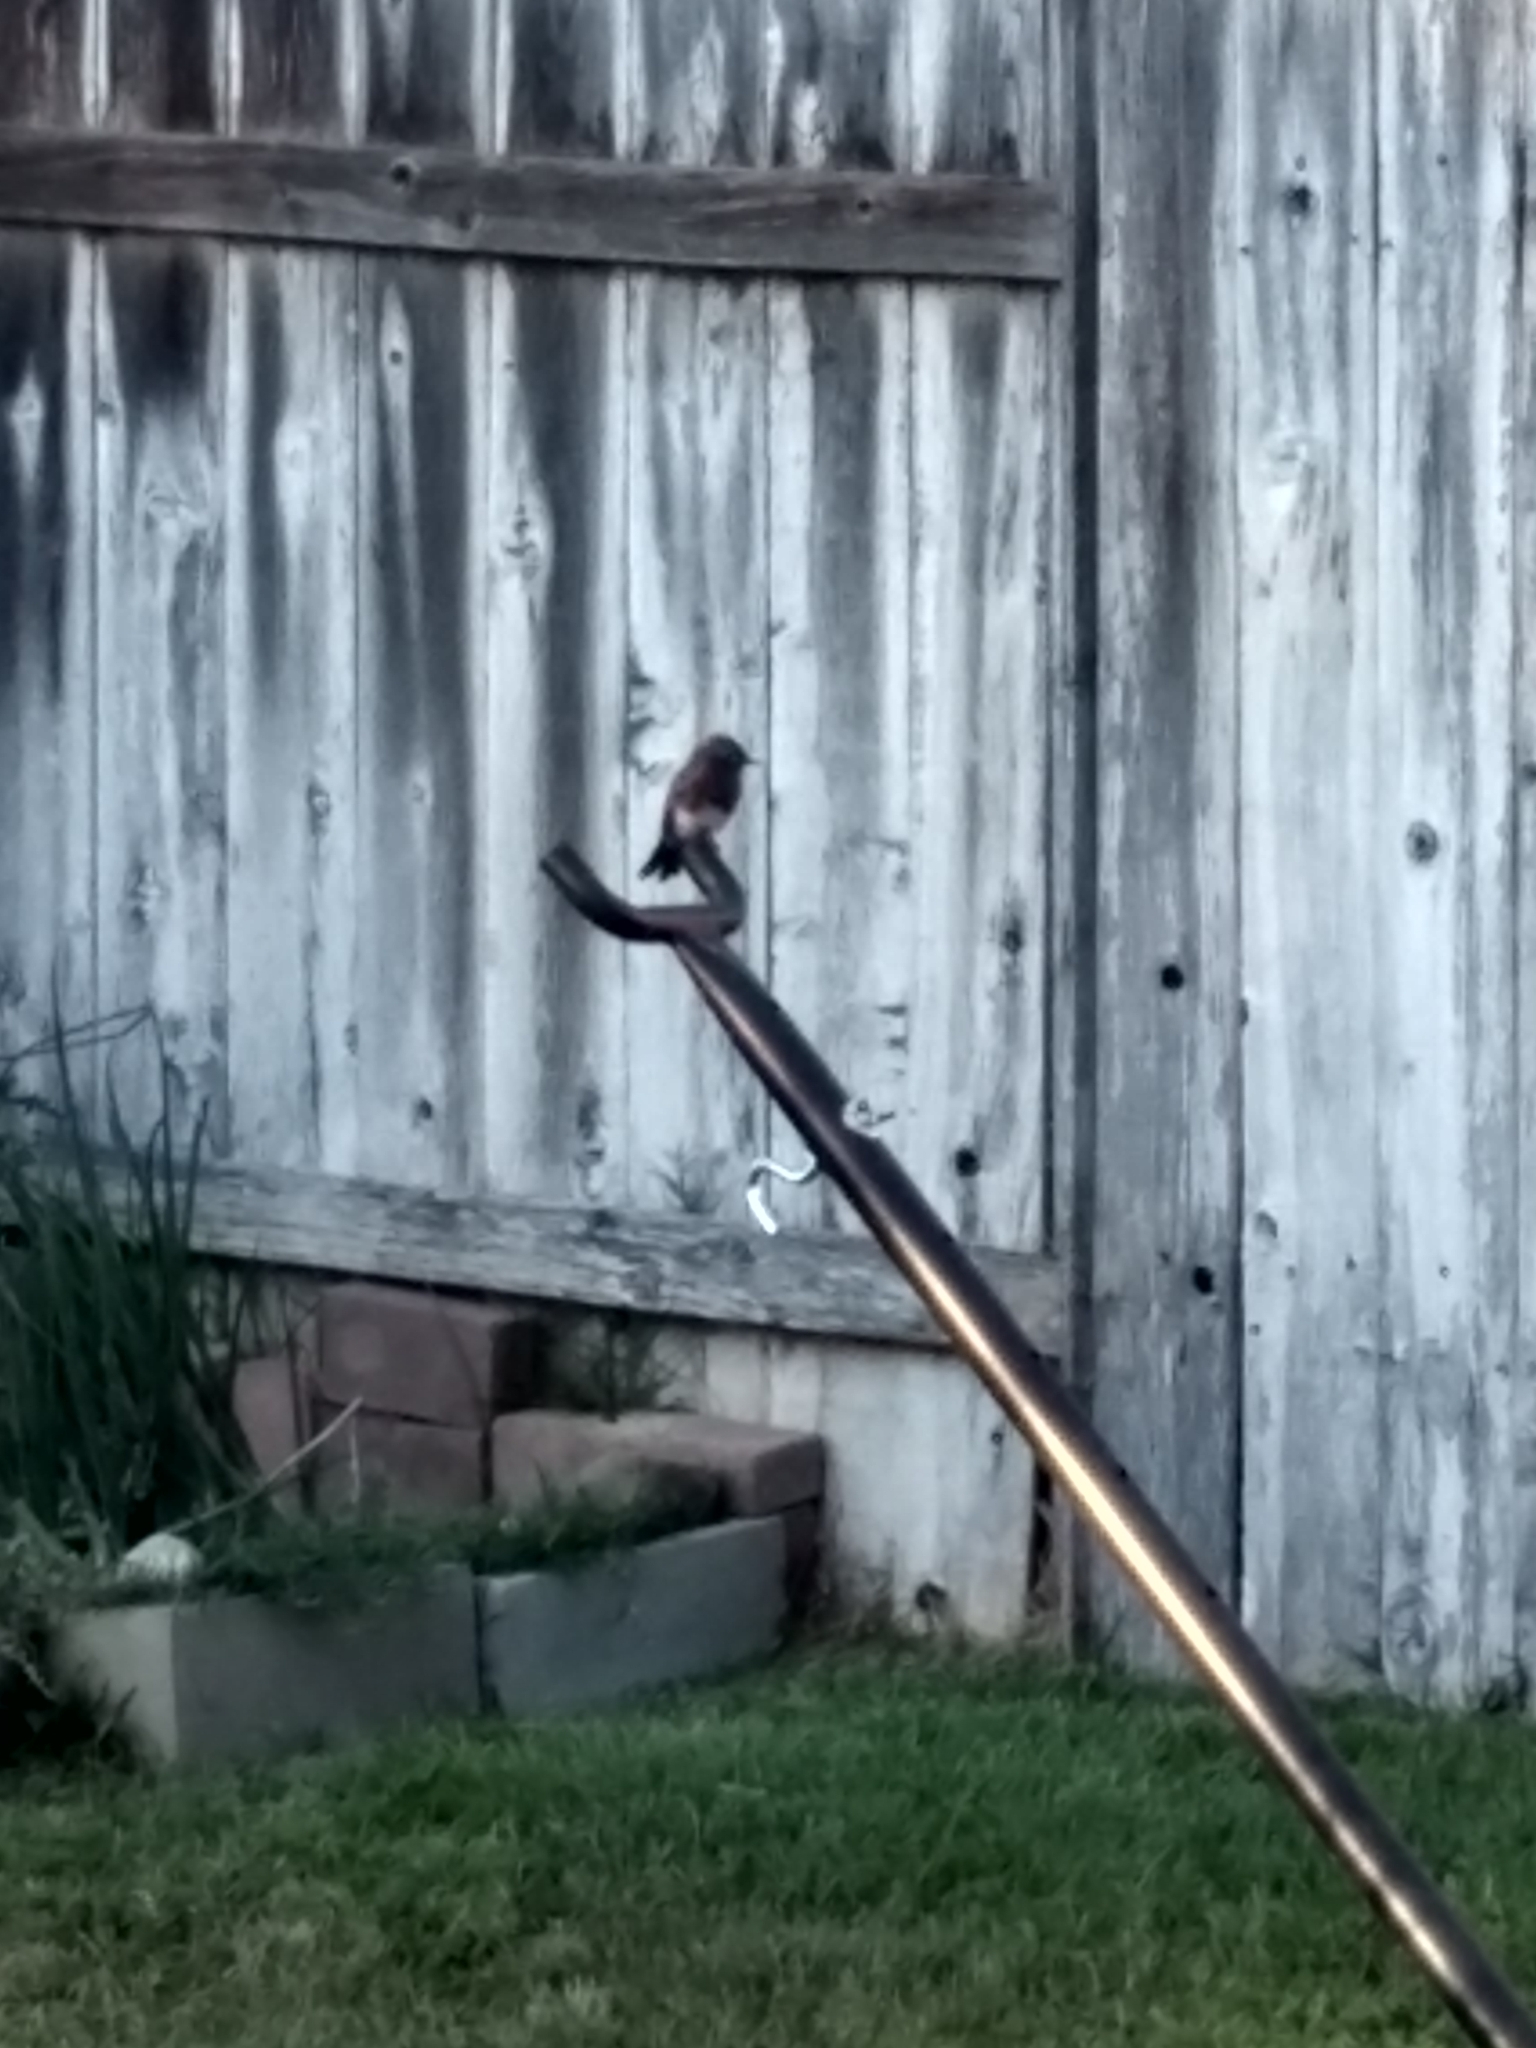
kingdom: Animalia
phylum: Chordata
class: Aves
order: Passeriformes
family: Tyrannidae
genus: Sayornis
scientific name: Sayornis nigricans
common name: Black phoebe
